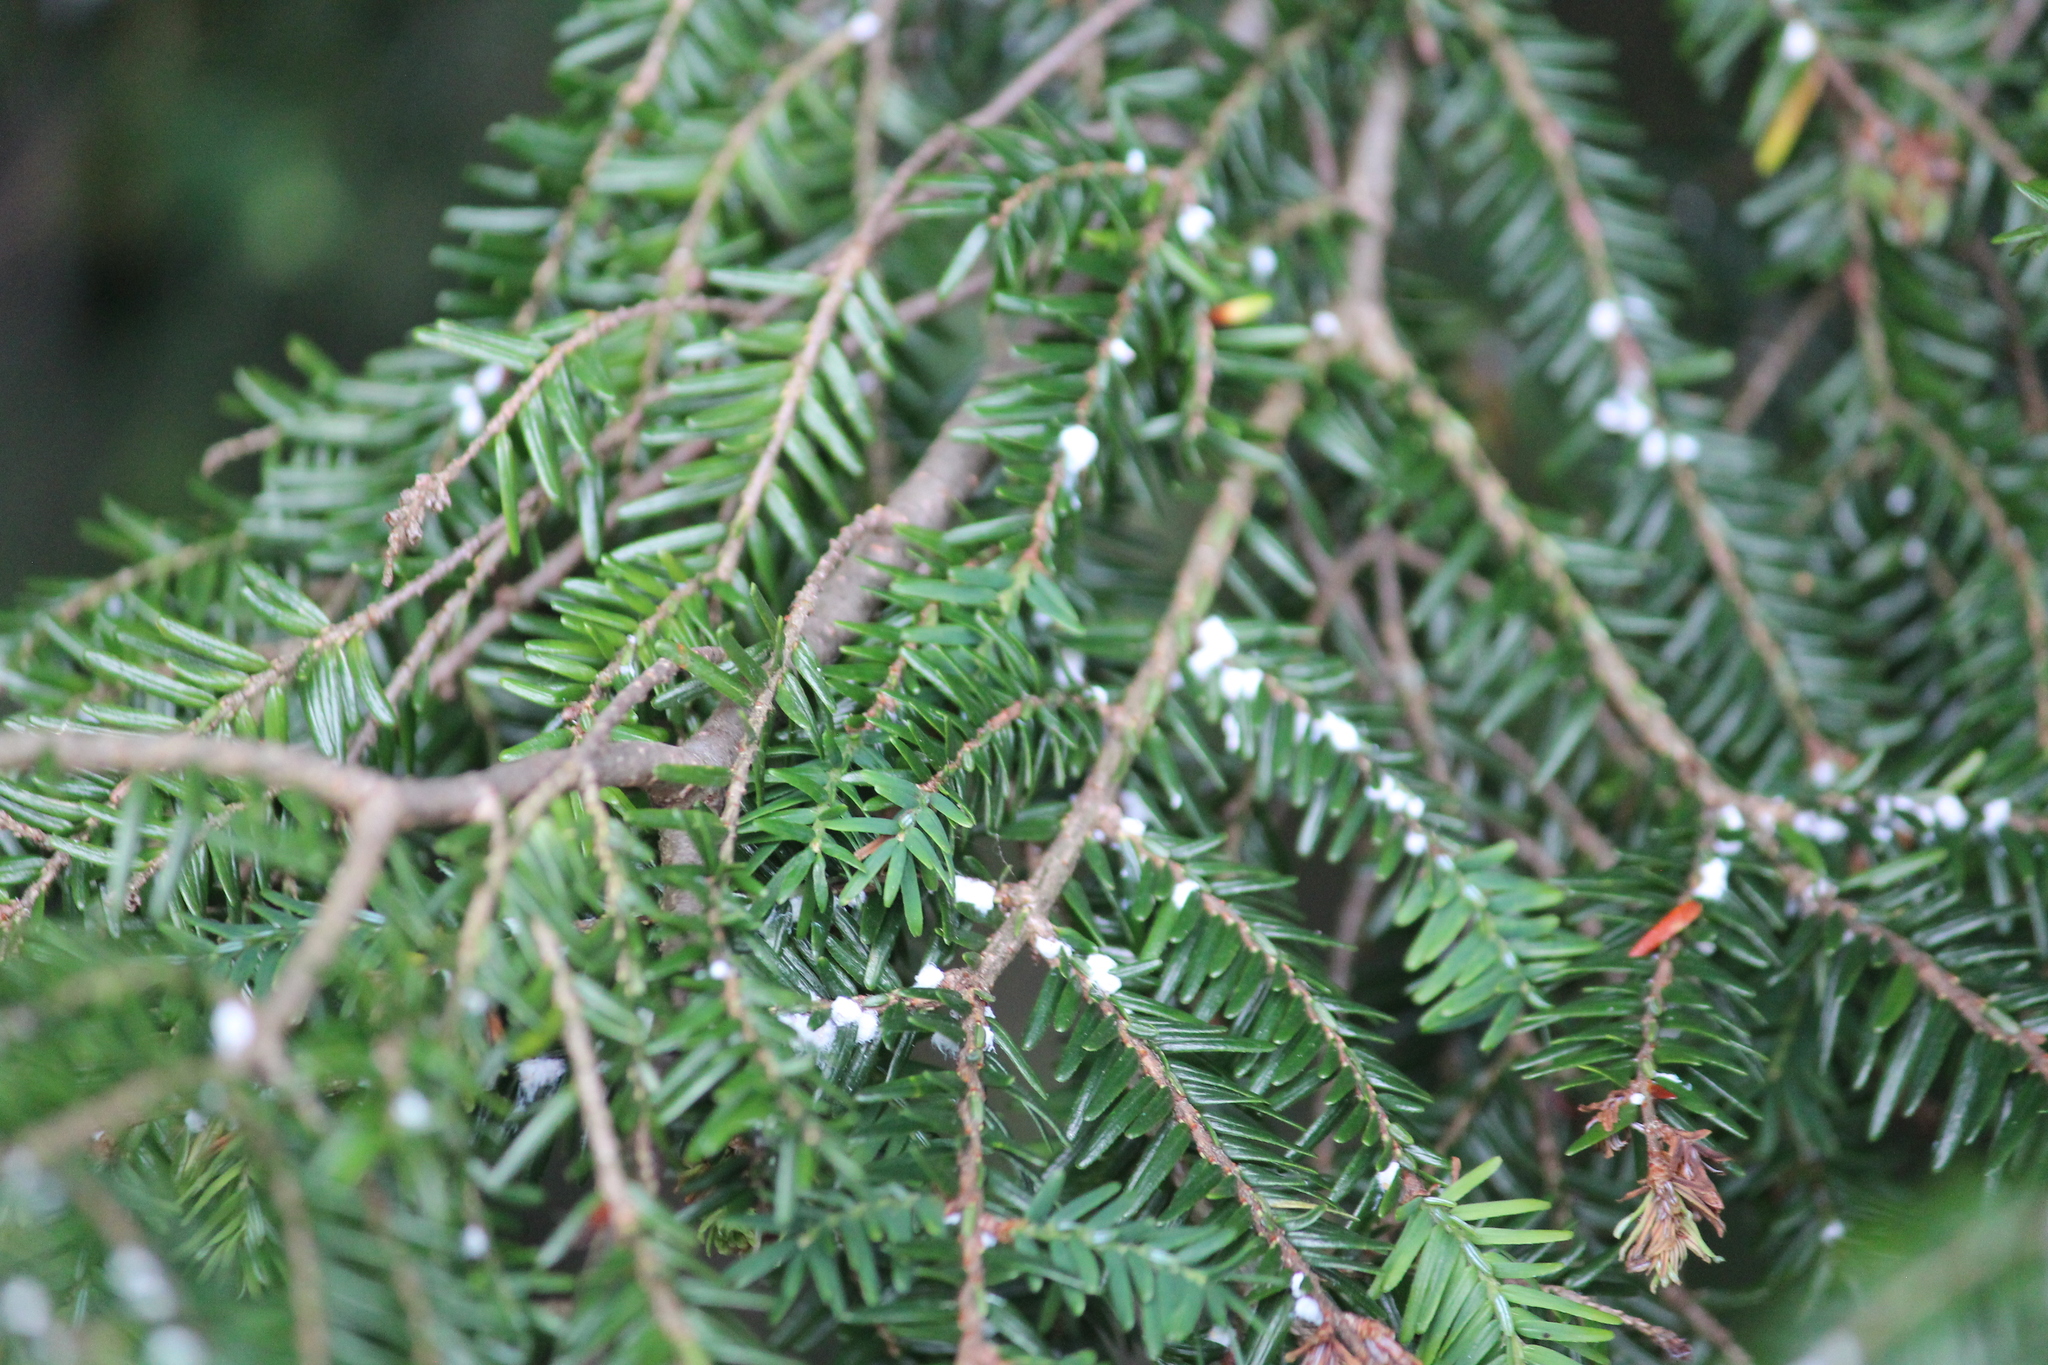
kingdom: Animalia
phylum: Arthropoda
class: Insecta
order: Hemiptera
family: Adelgidae
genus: Adelges
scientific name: Adelges tsugae
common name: Hemlock woolly adelgid
